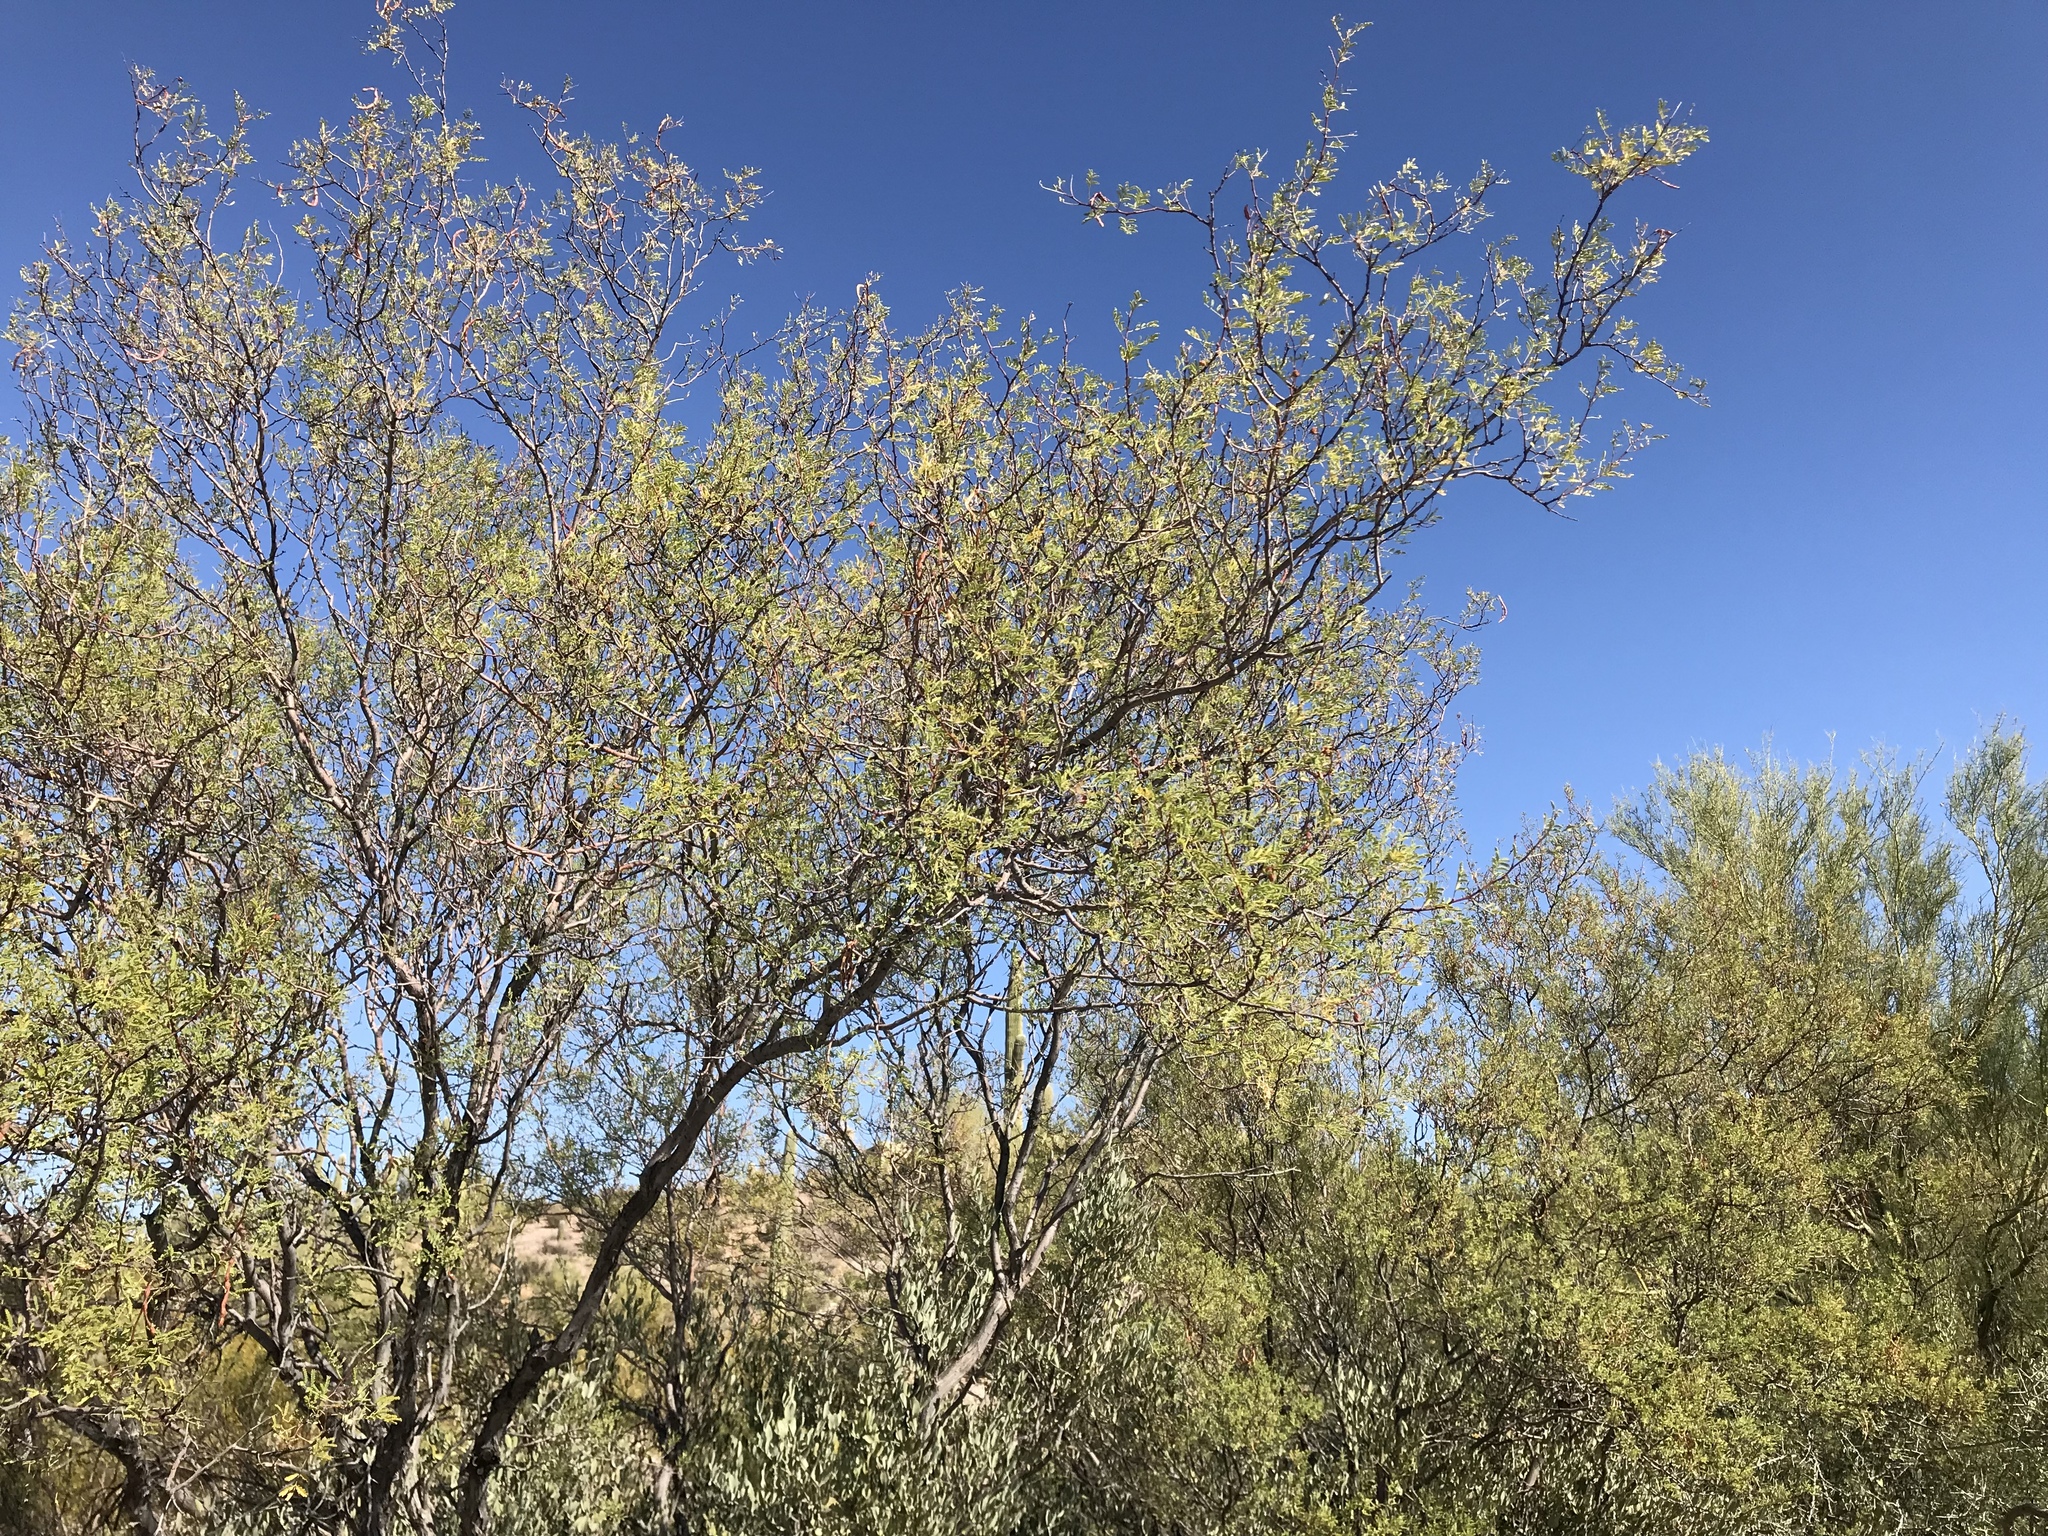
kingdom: Plantae
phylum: Tracheophyta
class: Magnoliopsida
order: Fabales
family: Fabaceae
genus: Vachellia
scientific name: Vachellia constricta
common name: Mescat acacia
